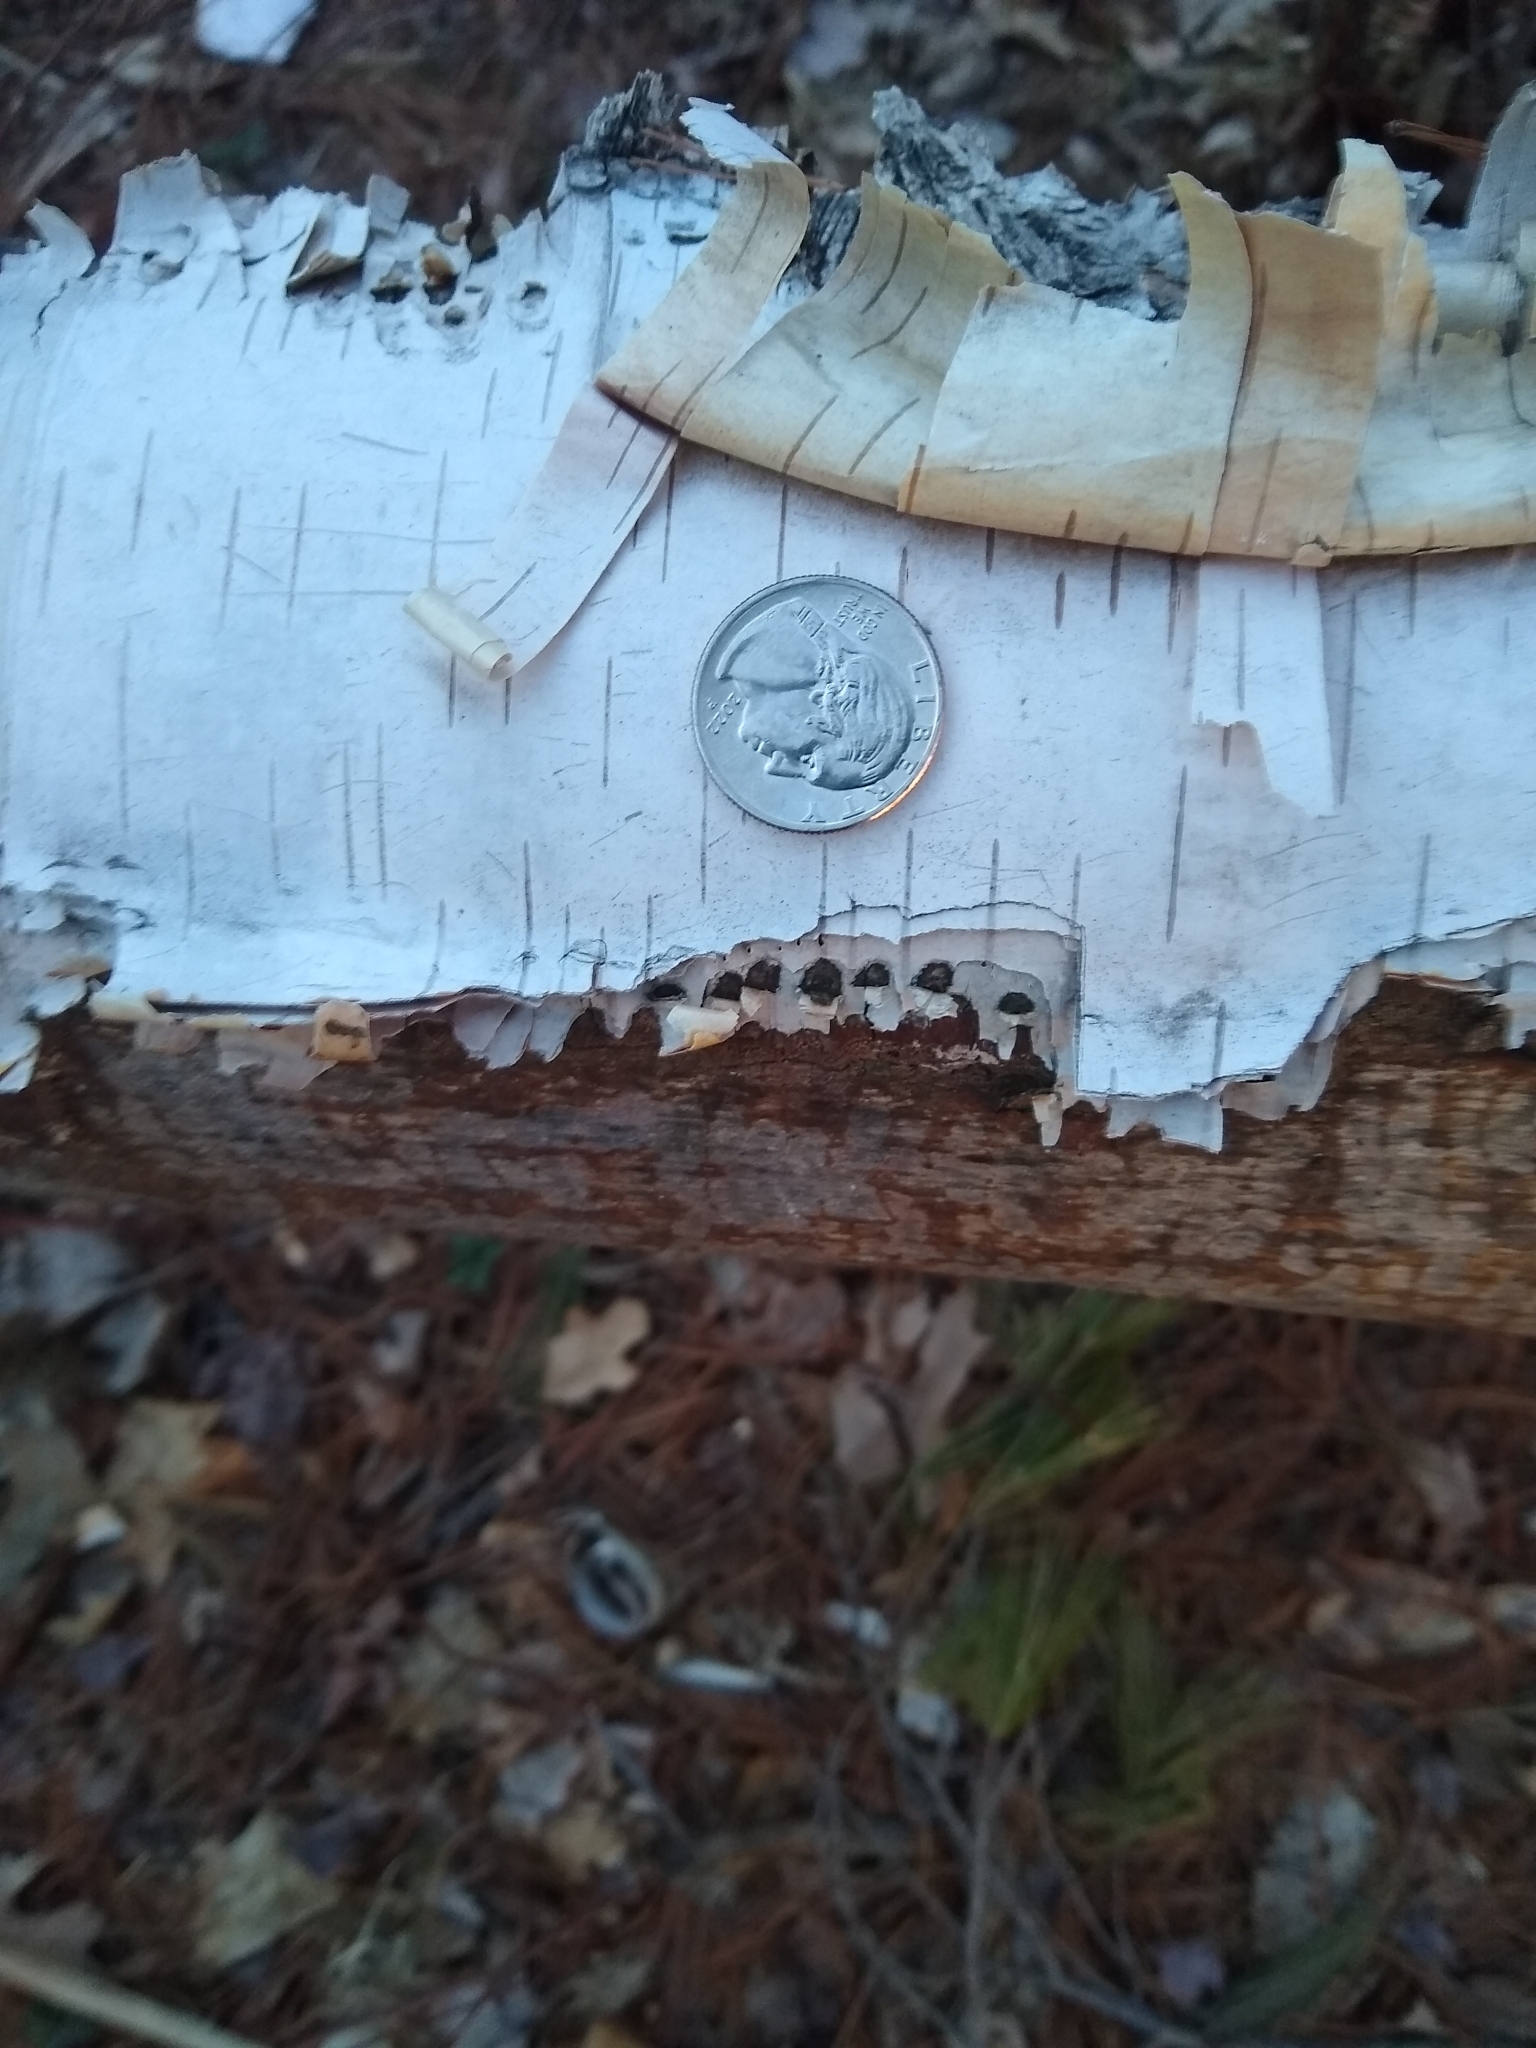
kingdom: Animalia
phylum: Chordata
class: Mammalia
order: Rodentia
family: Castoridae
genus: Castor
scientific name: Castor canadensis
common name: American beaver
